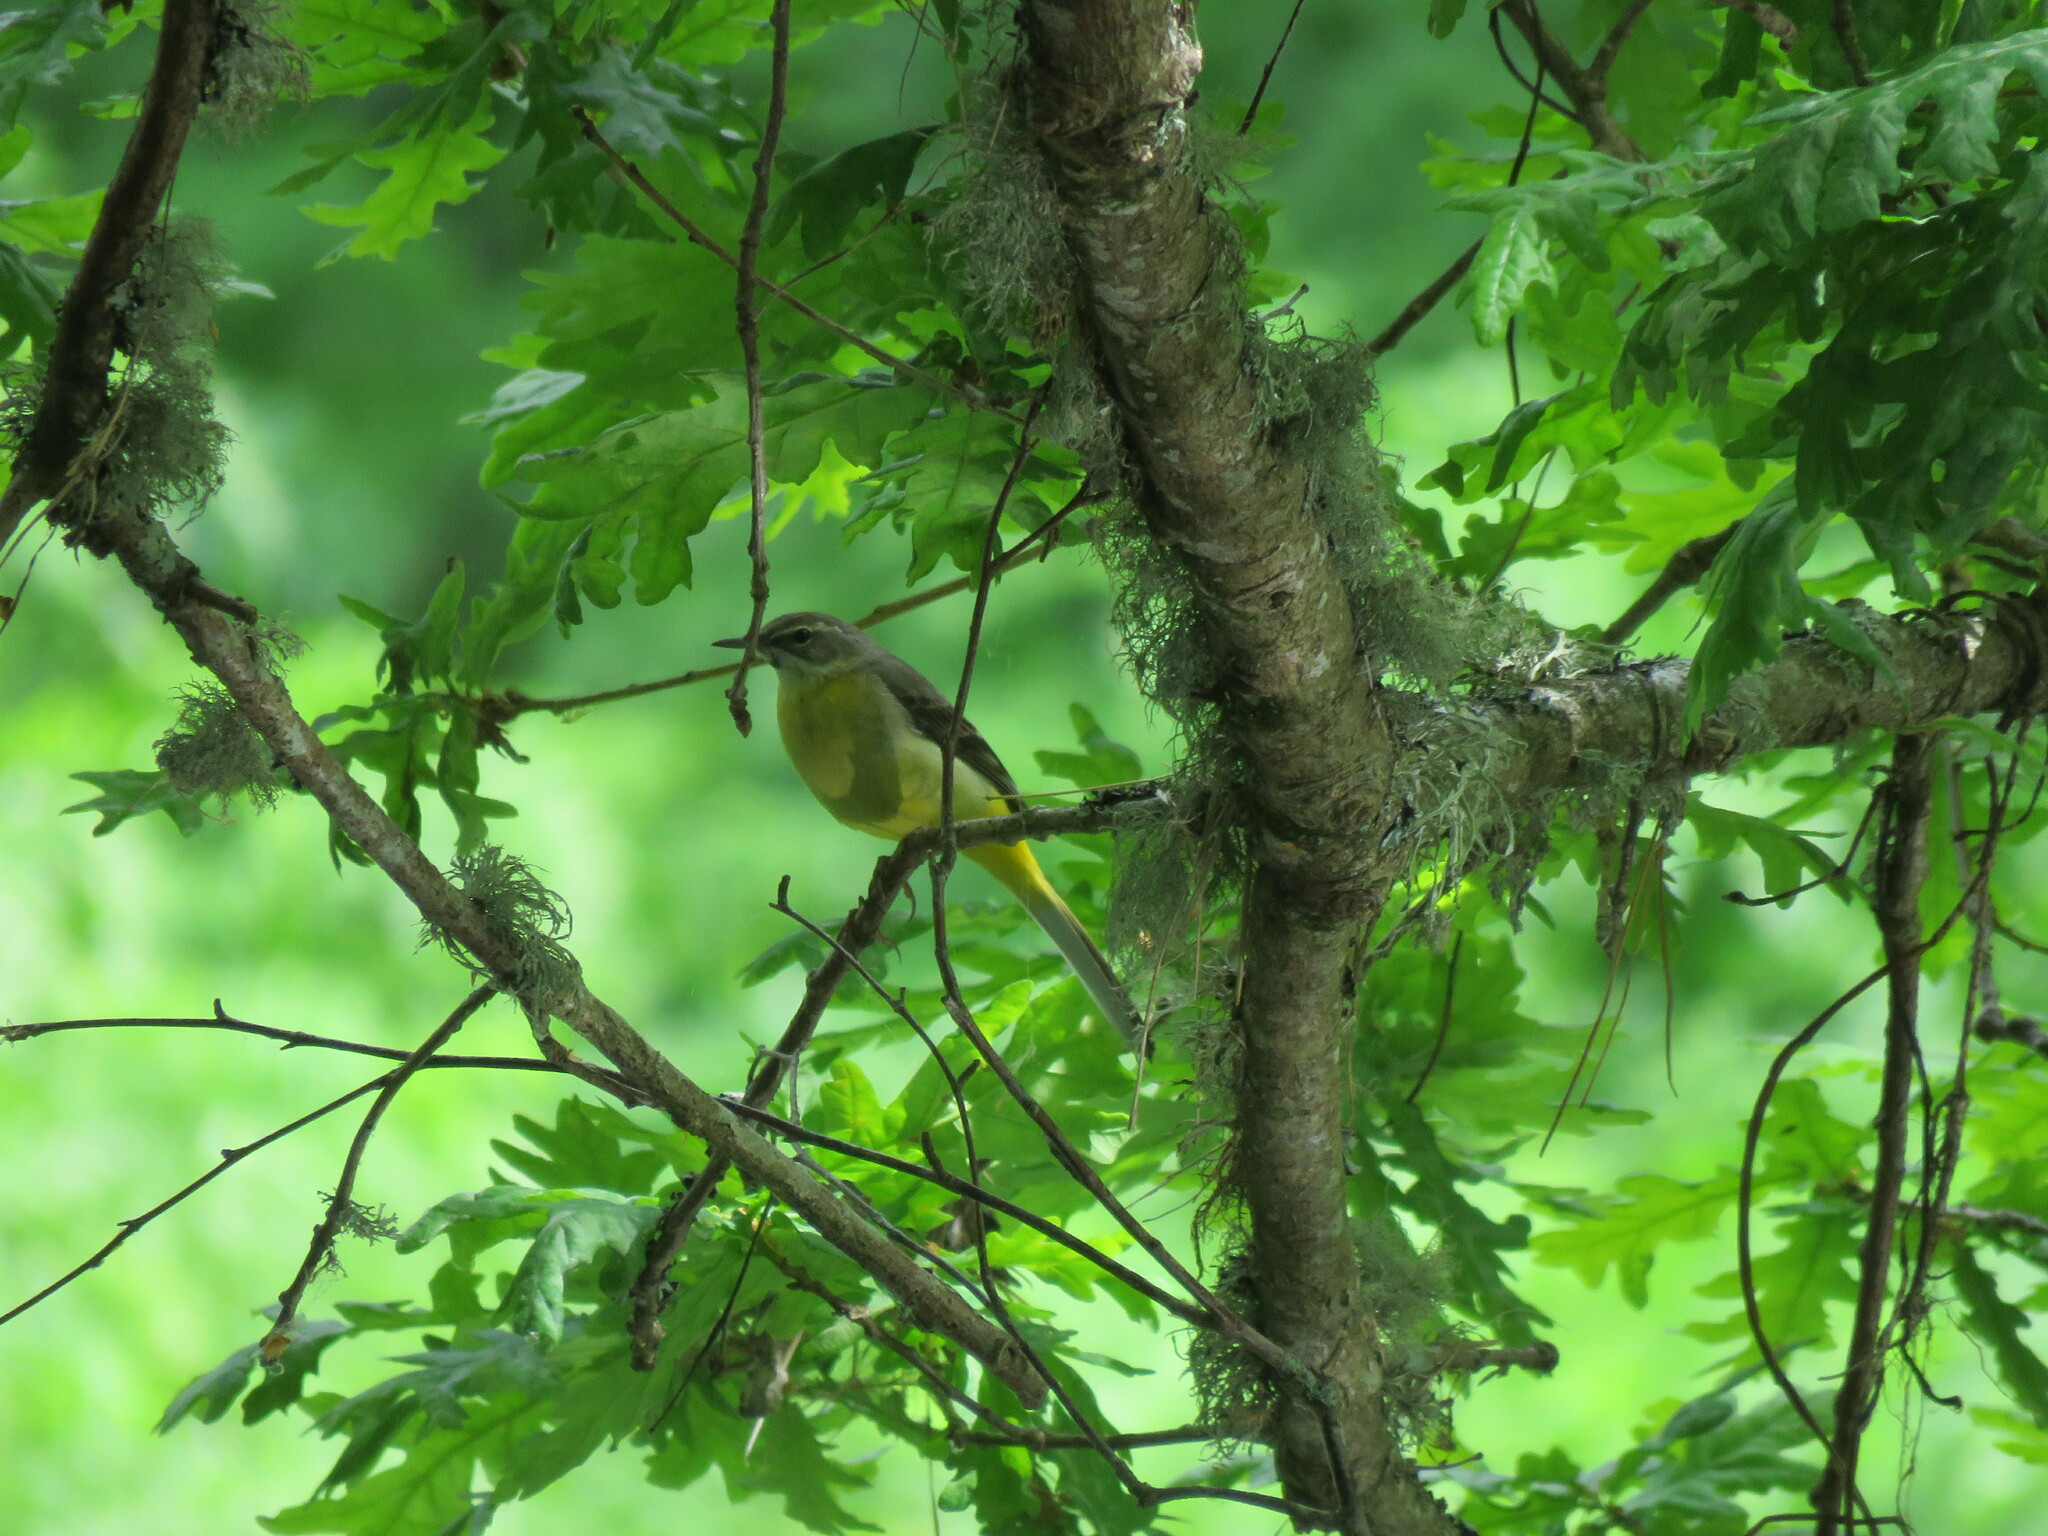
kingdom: Animalia
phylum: Chordata
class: Aves
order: Passeriformes
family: Motacillidae
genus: Motacilla
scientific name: Motacilla cinerea
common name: Grey wagtail
